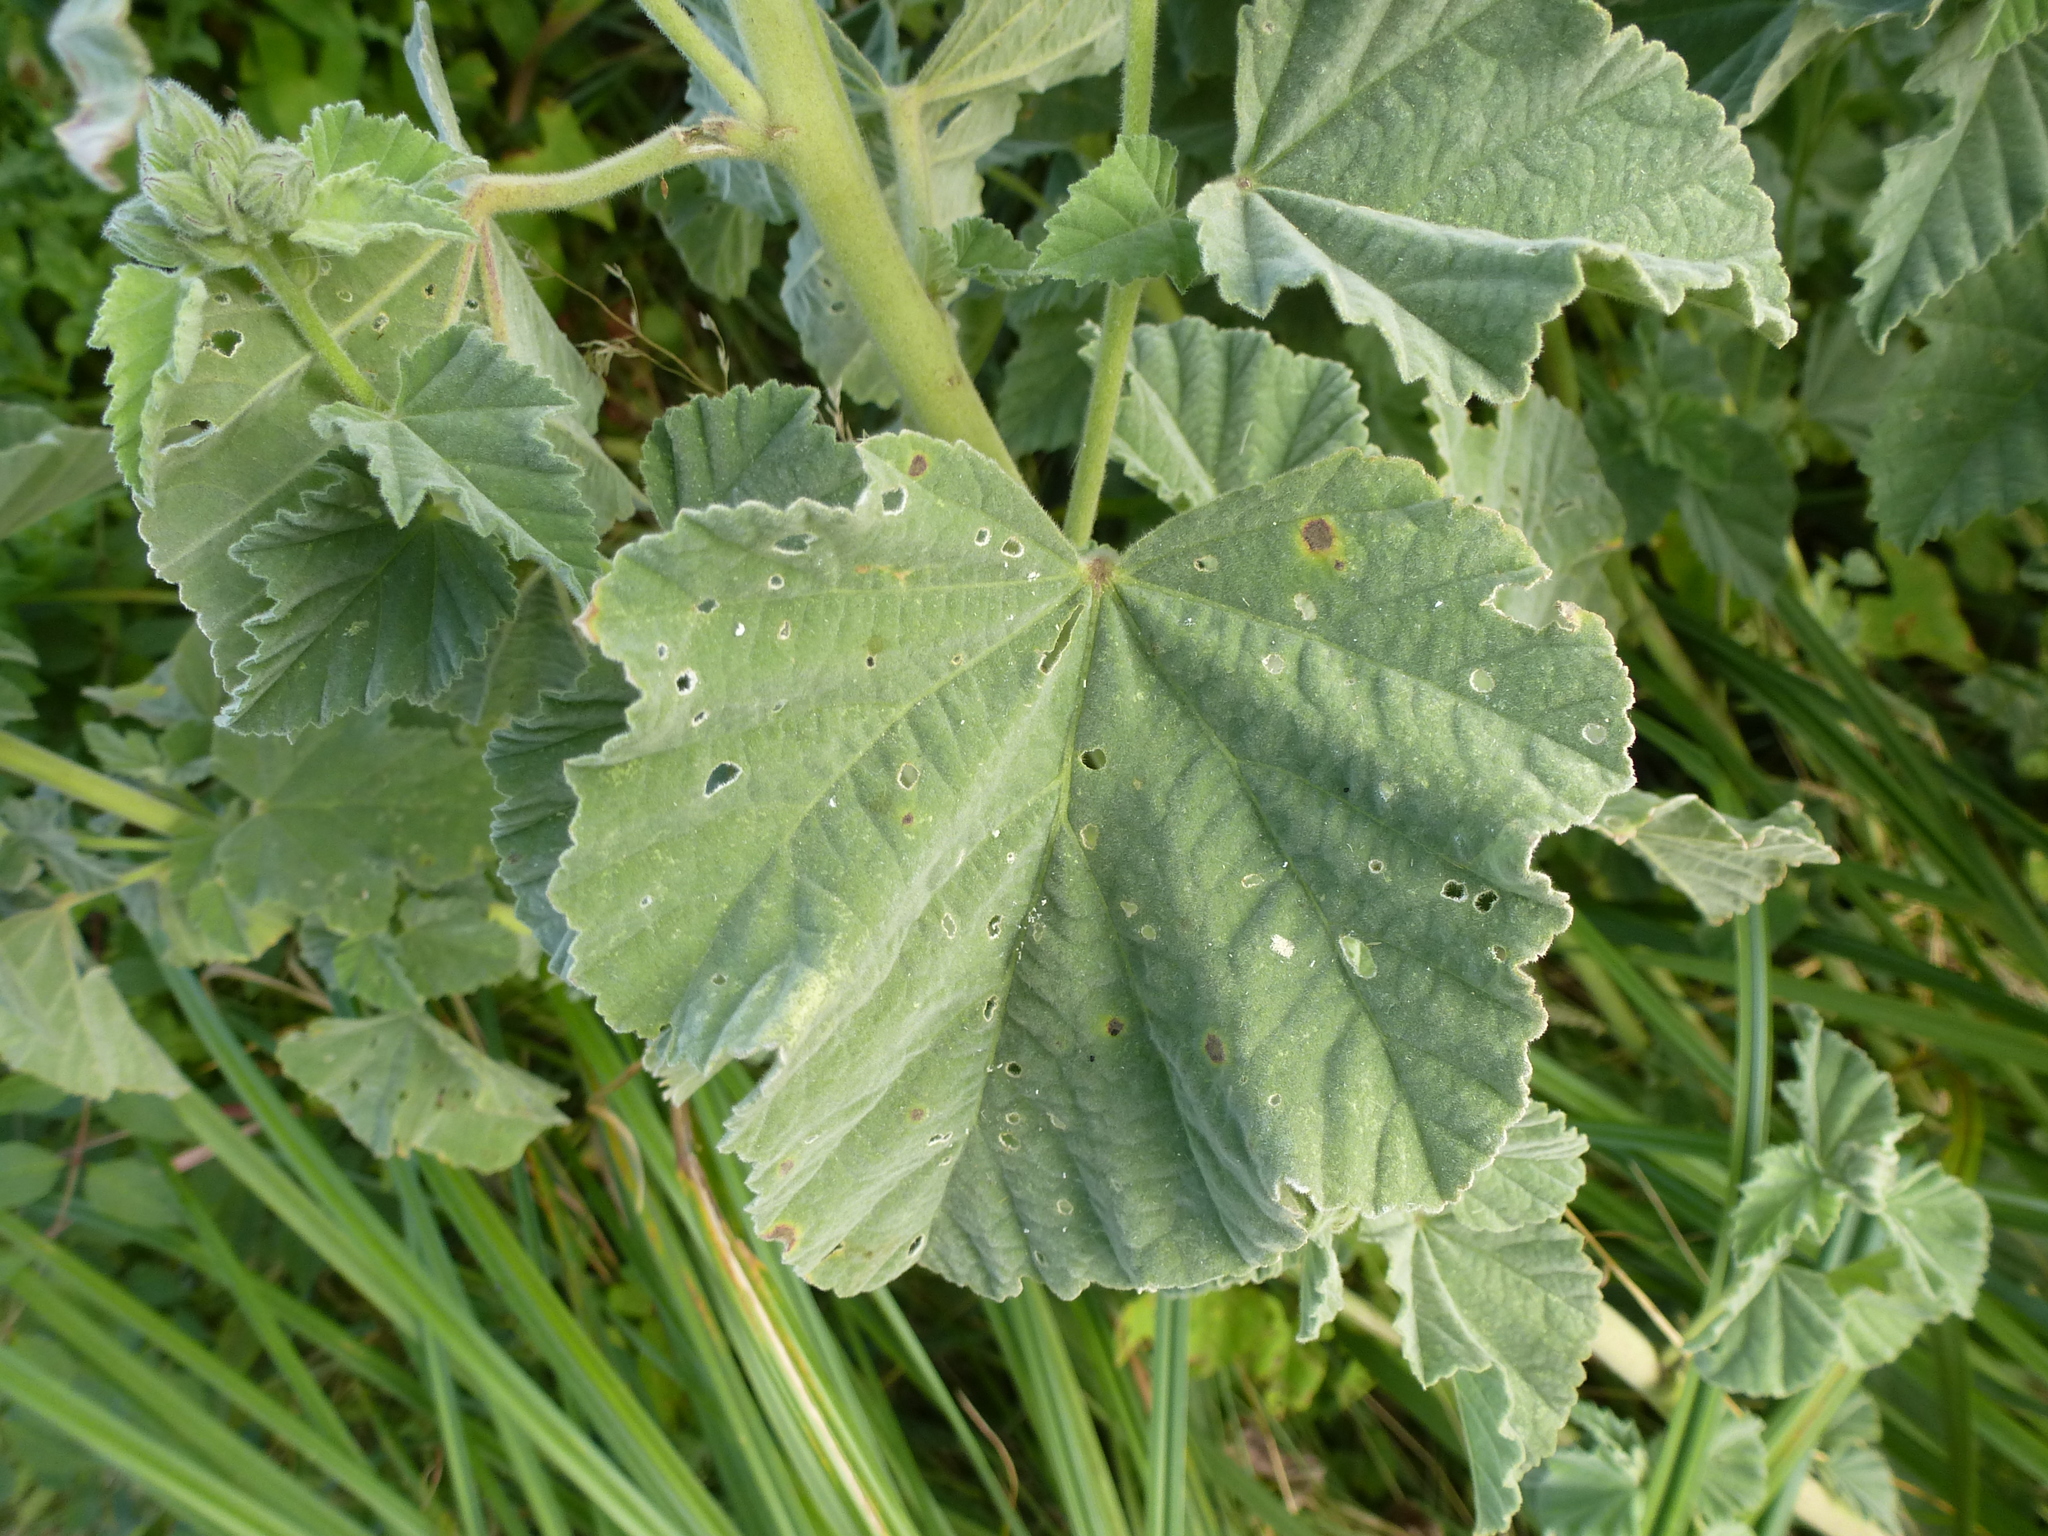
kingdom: Plantae
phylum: Tracheophyta
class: Magnoliopsida
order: Malvales
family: Malvaceae
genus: Althaea
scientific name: Althaea officinalis
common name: Marsh-mallow
